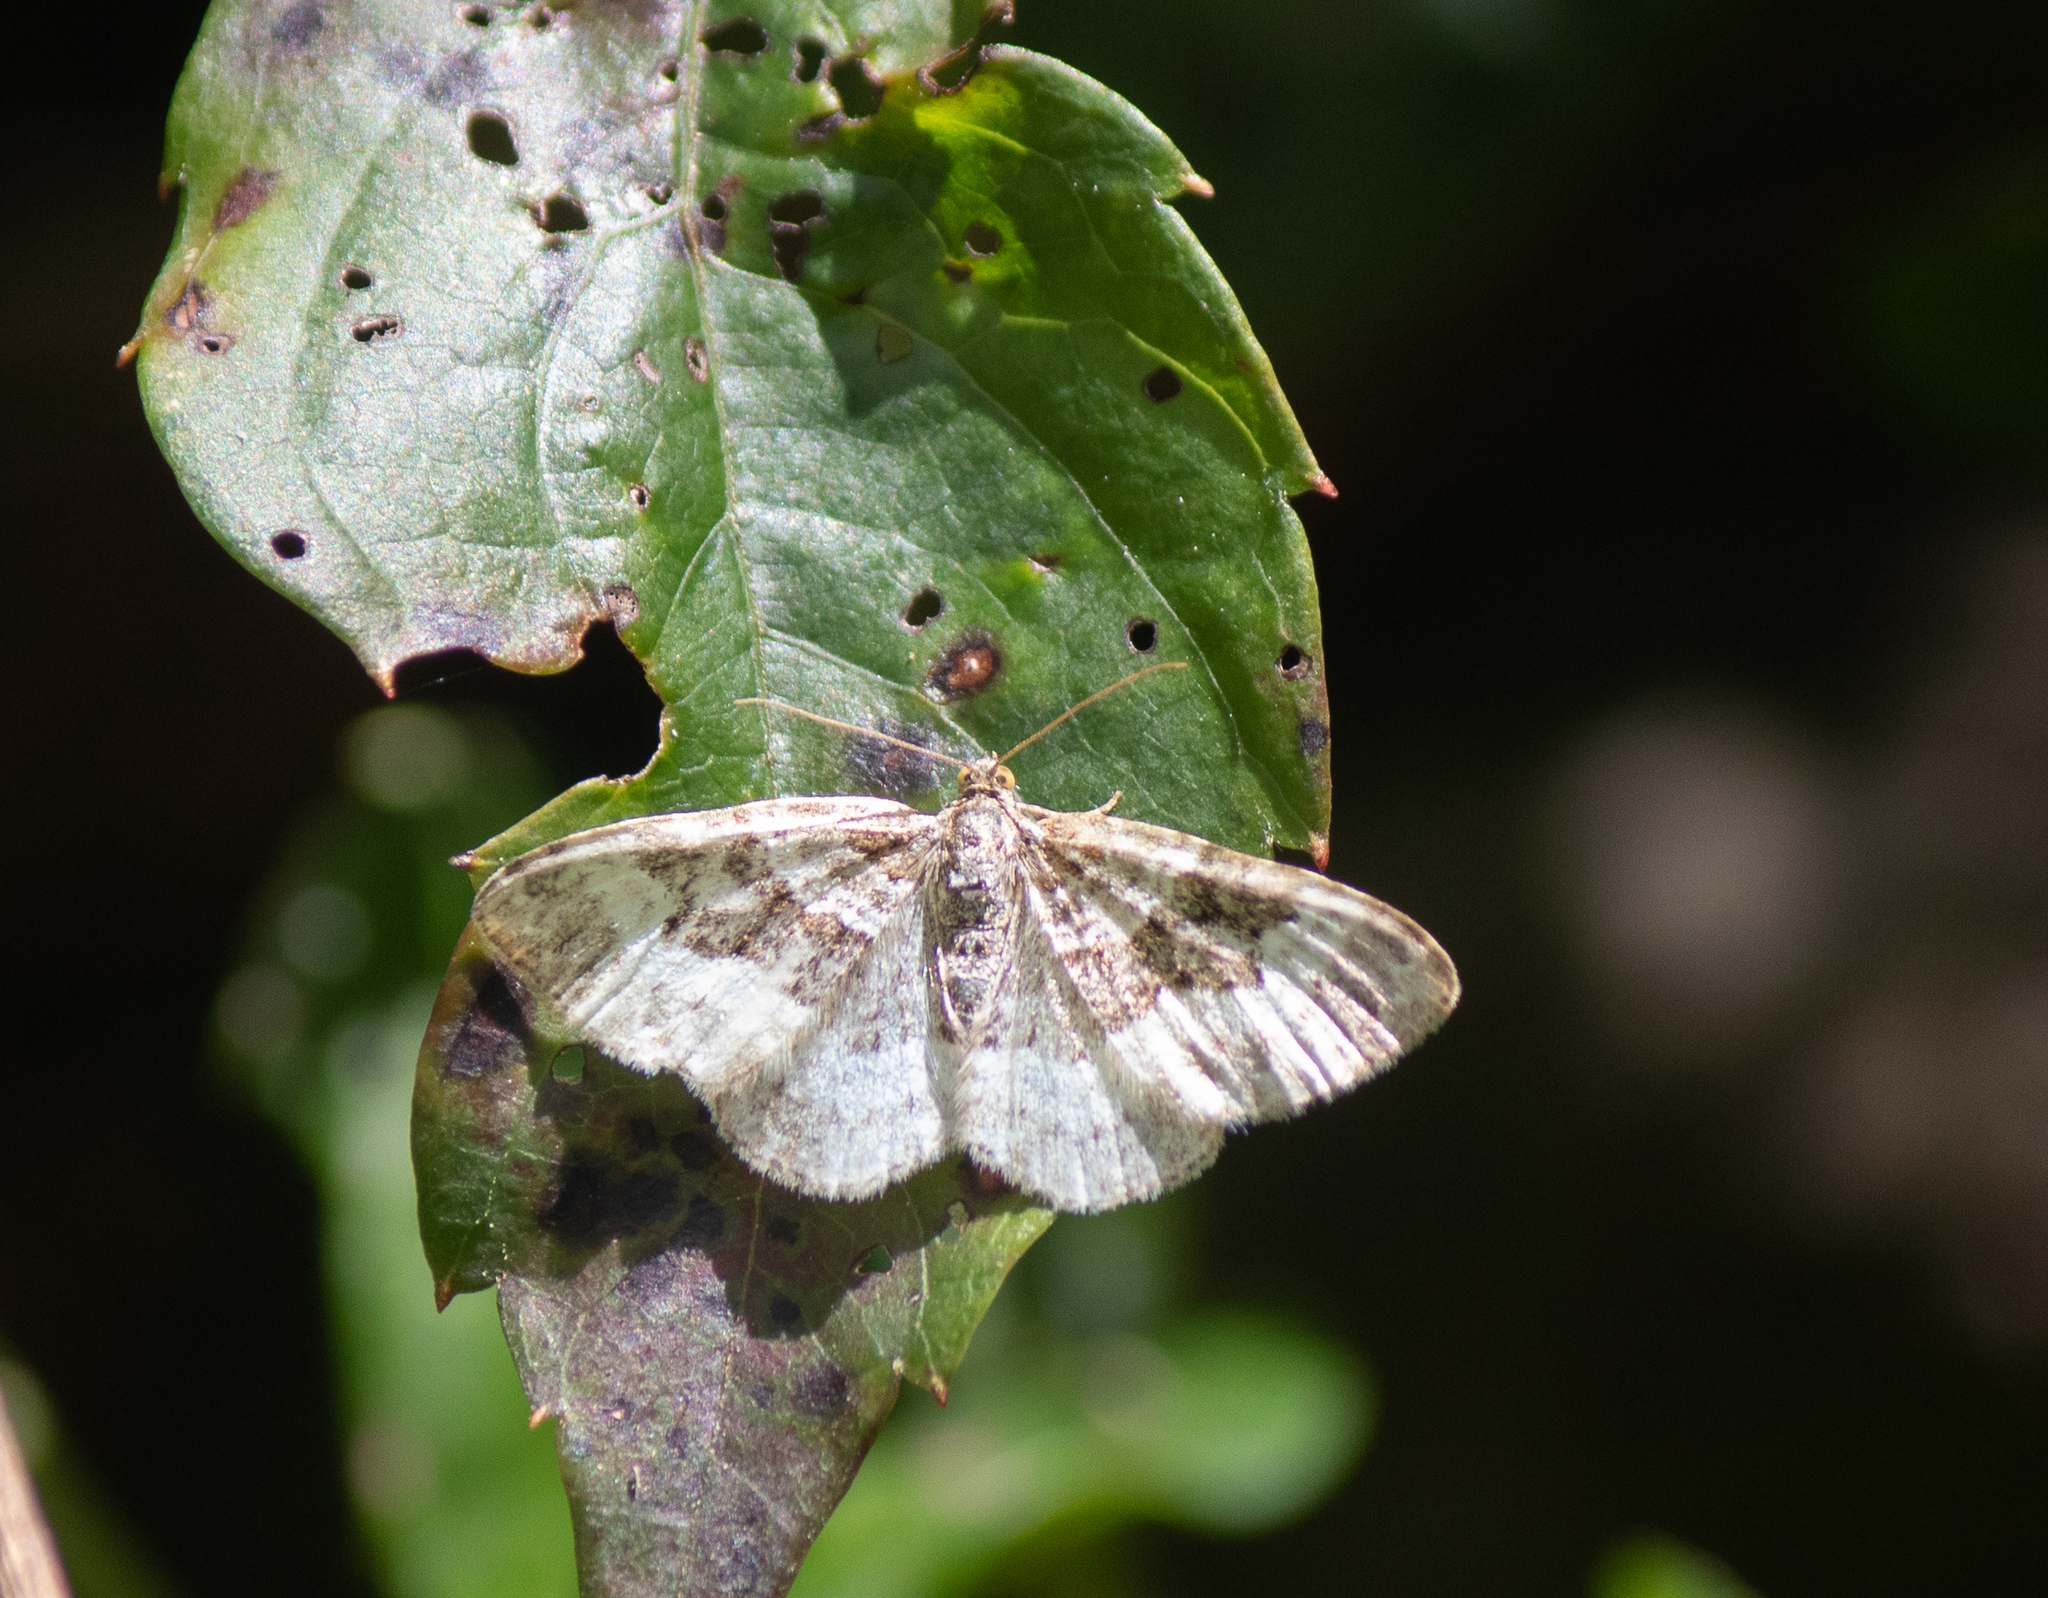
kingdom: Animalia
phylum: Arthropoda
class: Insecta
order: Lepidoptera
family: Geometridae
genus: Epirrhoe
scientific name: Epirrhoe alternata
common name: Common carpet
